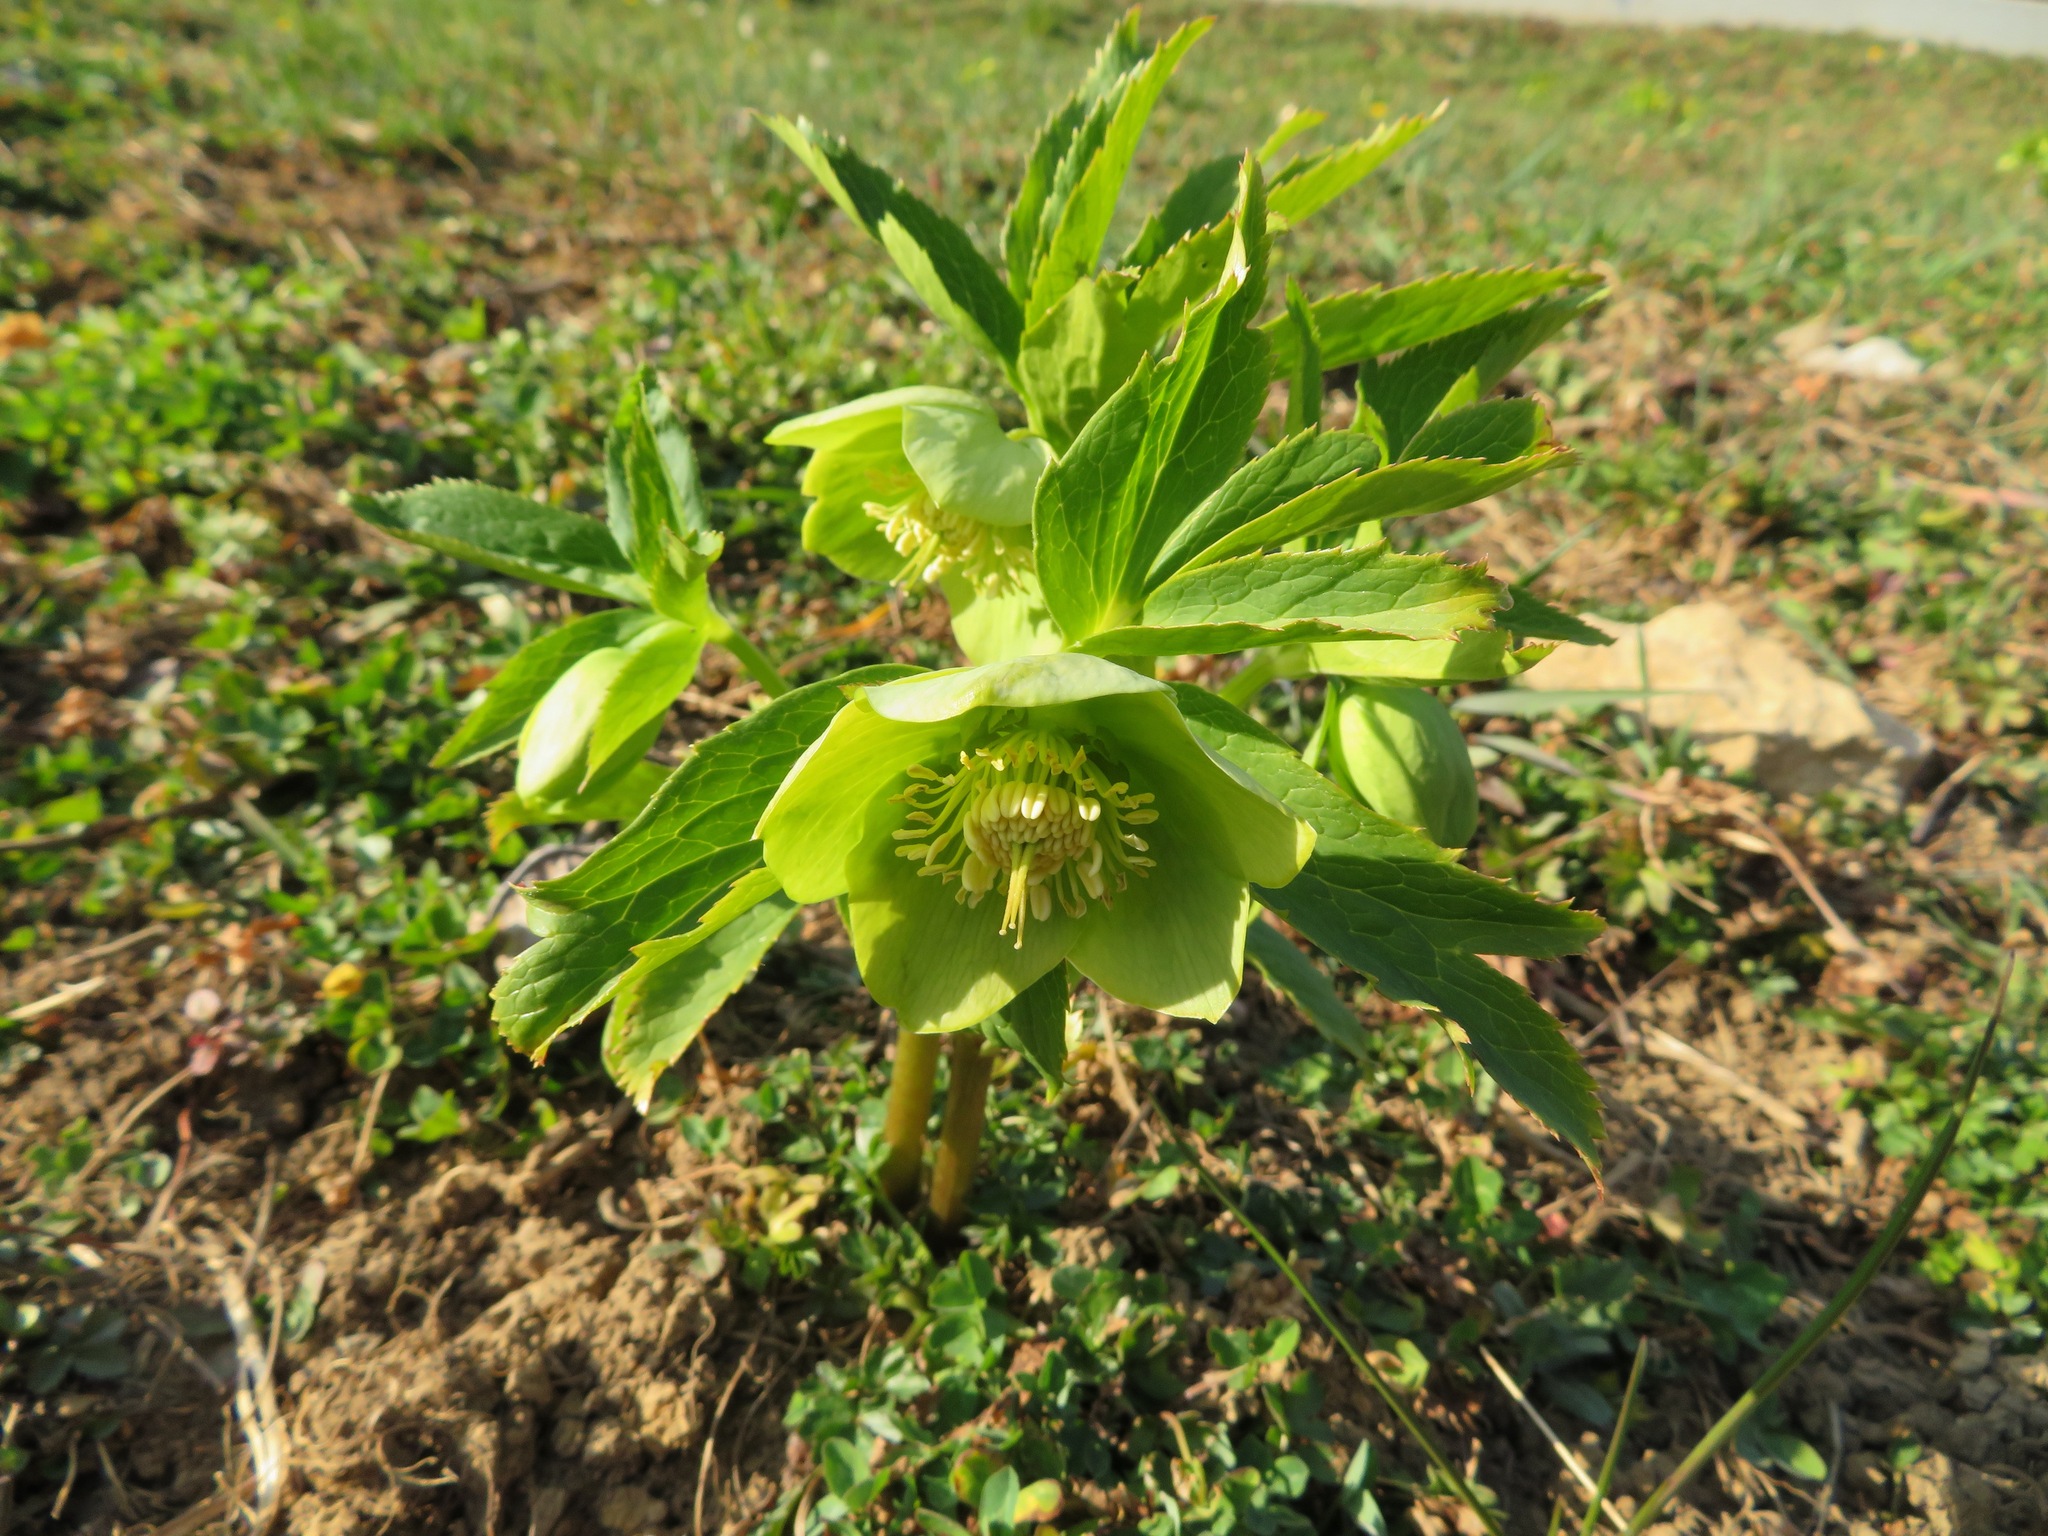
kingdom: Plantae
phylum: Tracheophyta
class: Magnoliopsida
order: Ranunculales
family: Ranunculaceae
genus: Helleborus
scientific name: Helleborus viridis
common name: Green hellebore
